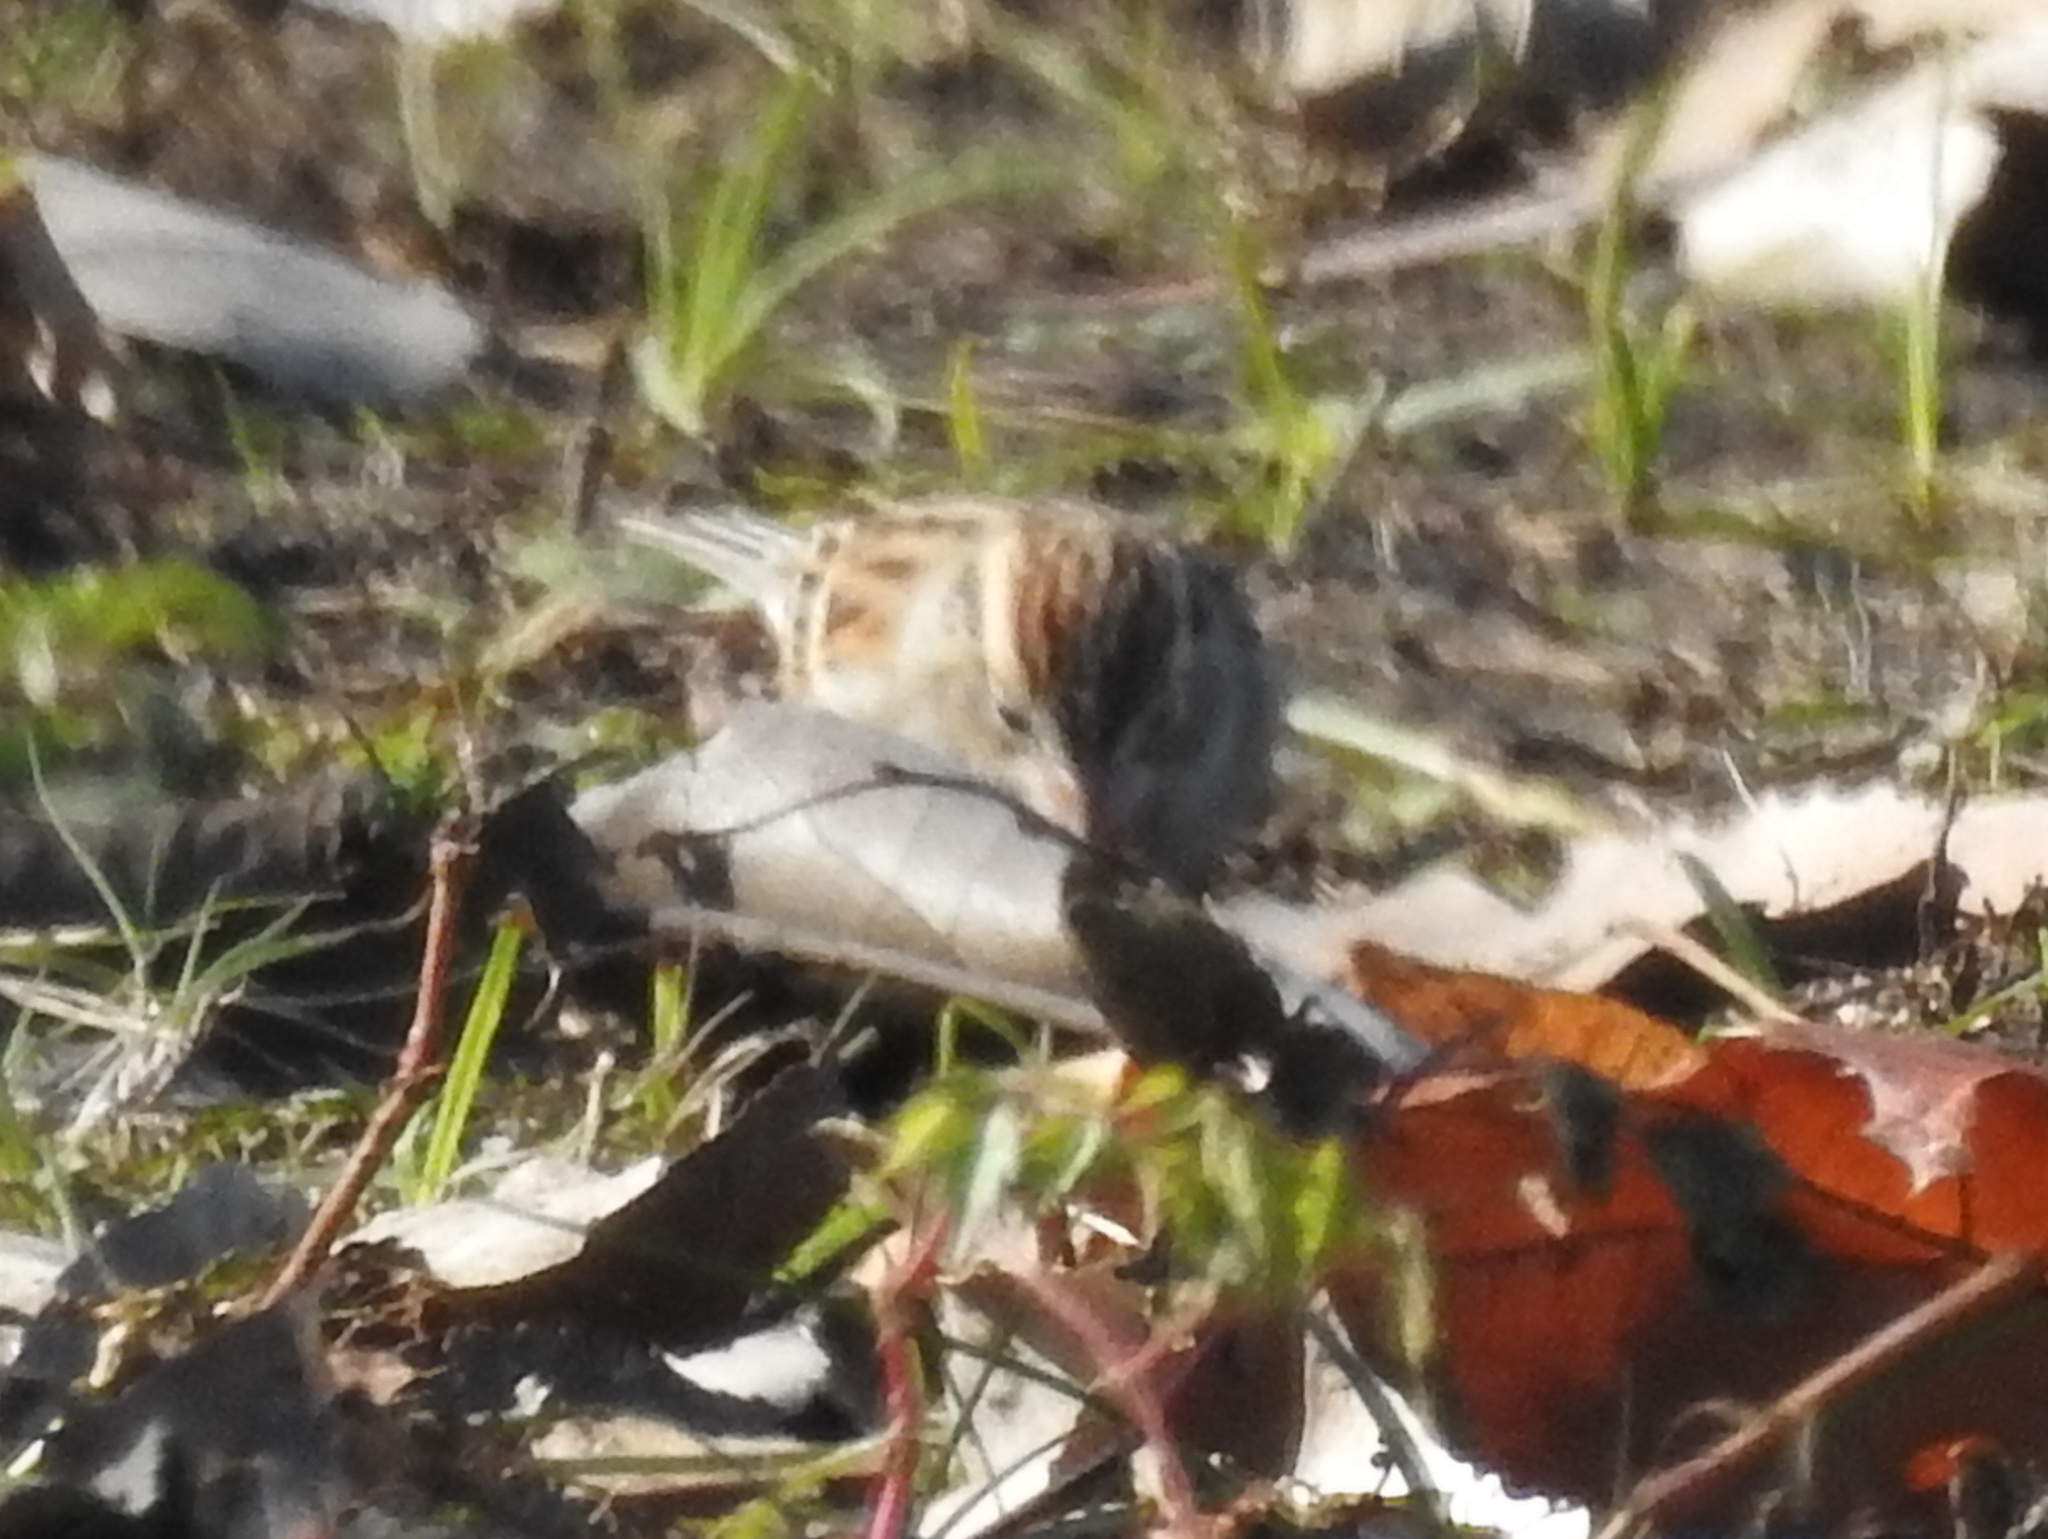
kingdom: Animalia
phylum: Chordata
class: Aves
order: Passeriformes
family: Passerellidae
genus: Spizella
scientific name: Spizella passerina
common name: Chipping sparrow
